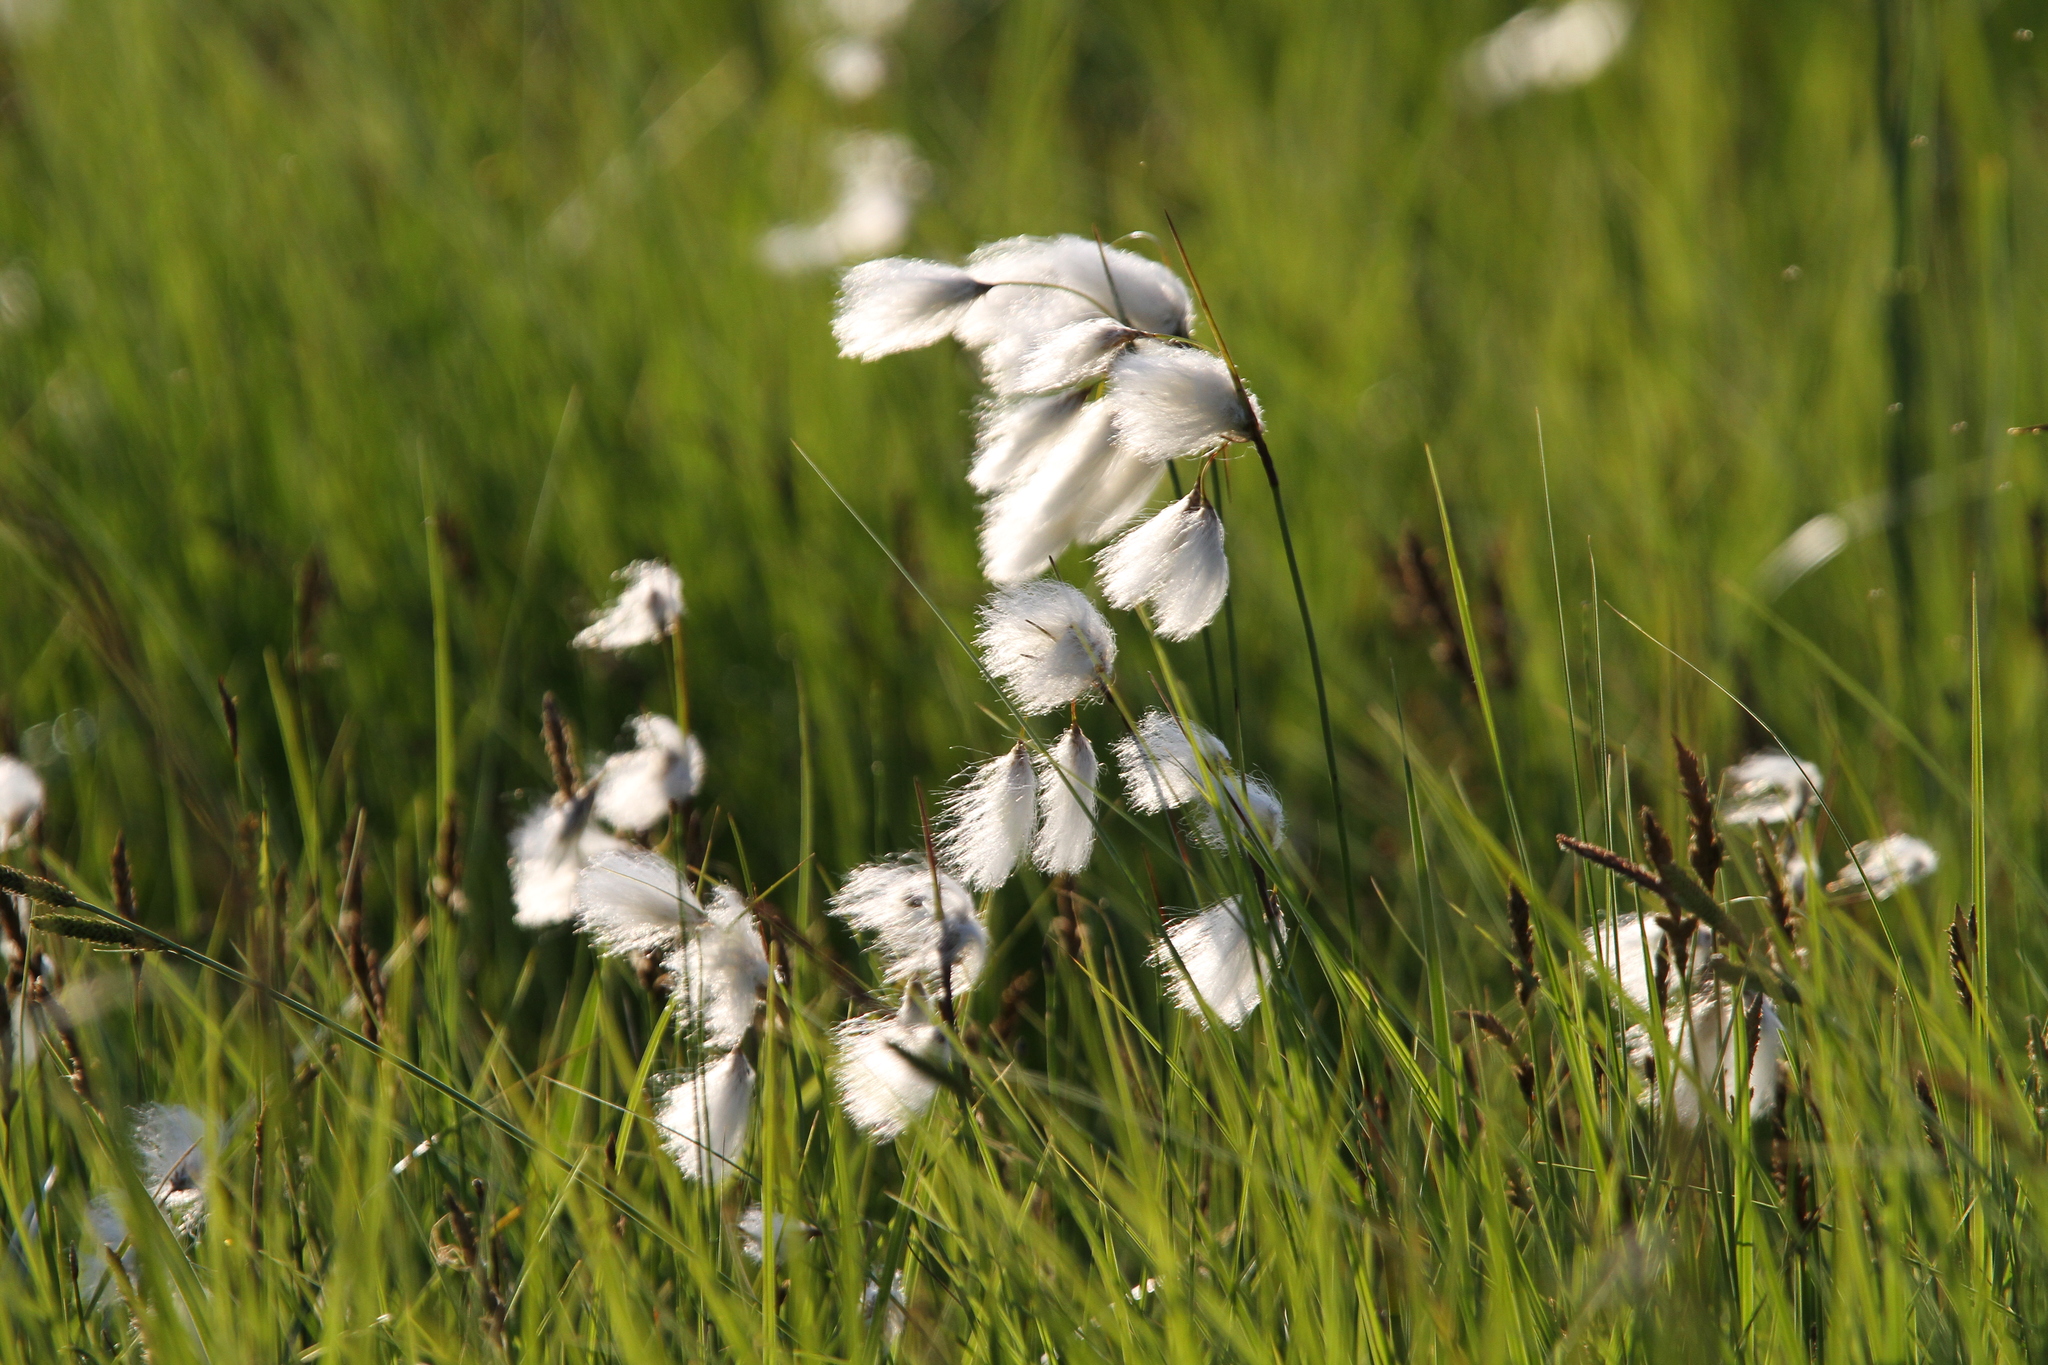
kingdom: Plantae
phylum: Tracheophyta
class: Liliopsida
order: Poales
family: Cyperaceae
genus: Eriophorum
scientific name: Eriophorum angustifolium
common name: Common cottongrass
